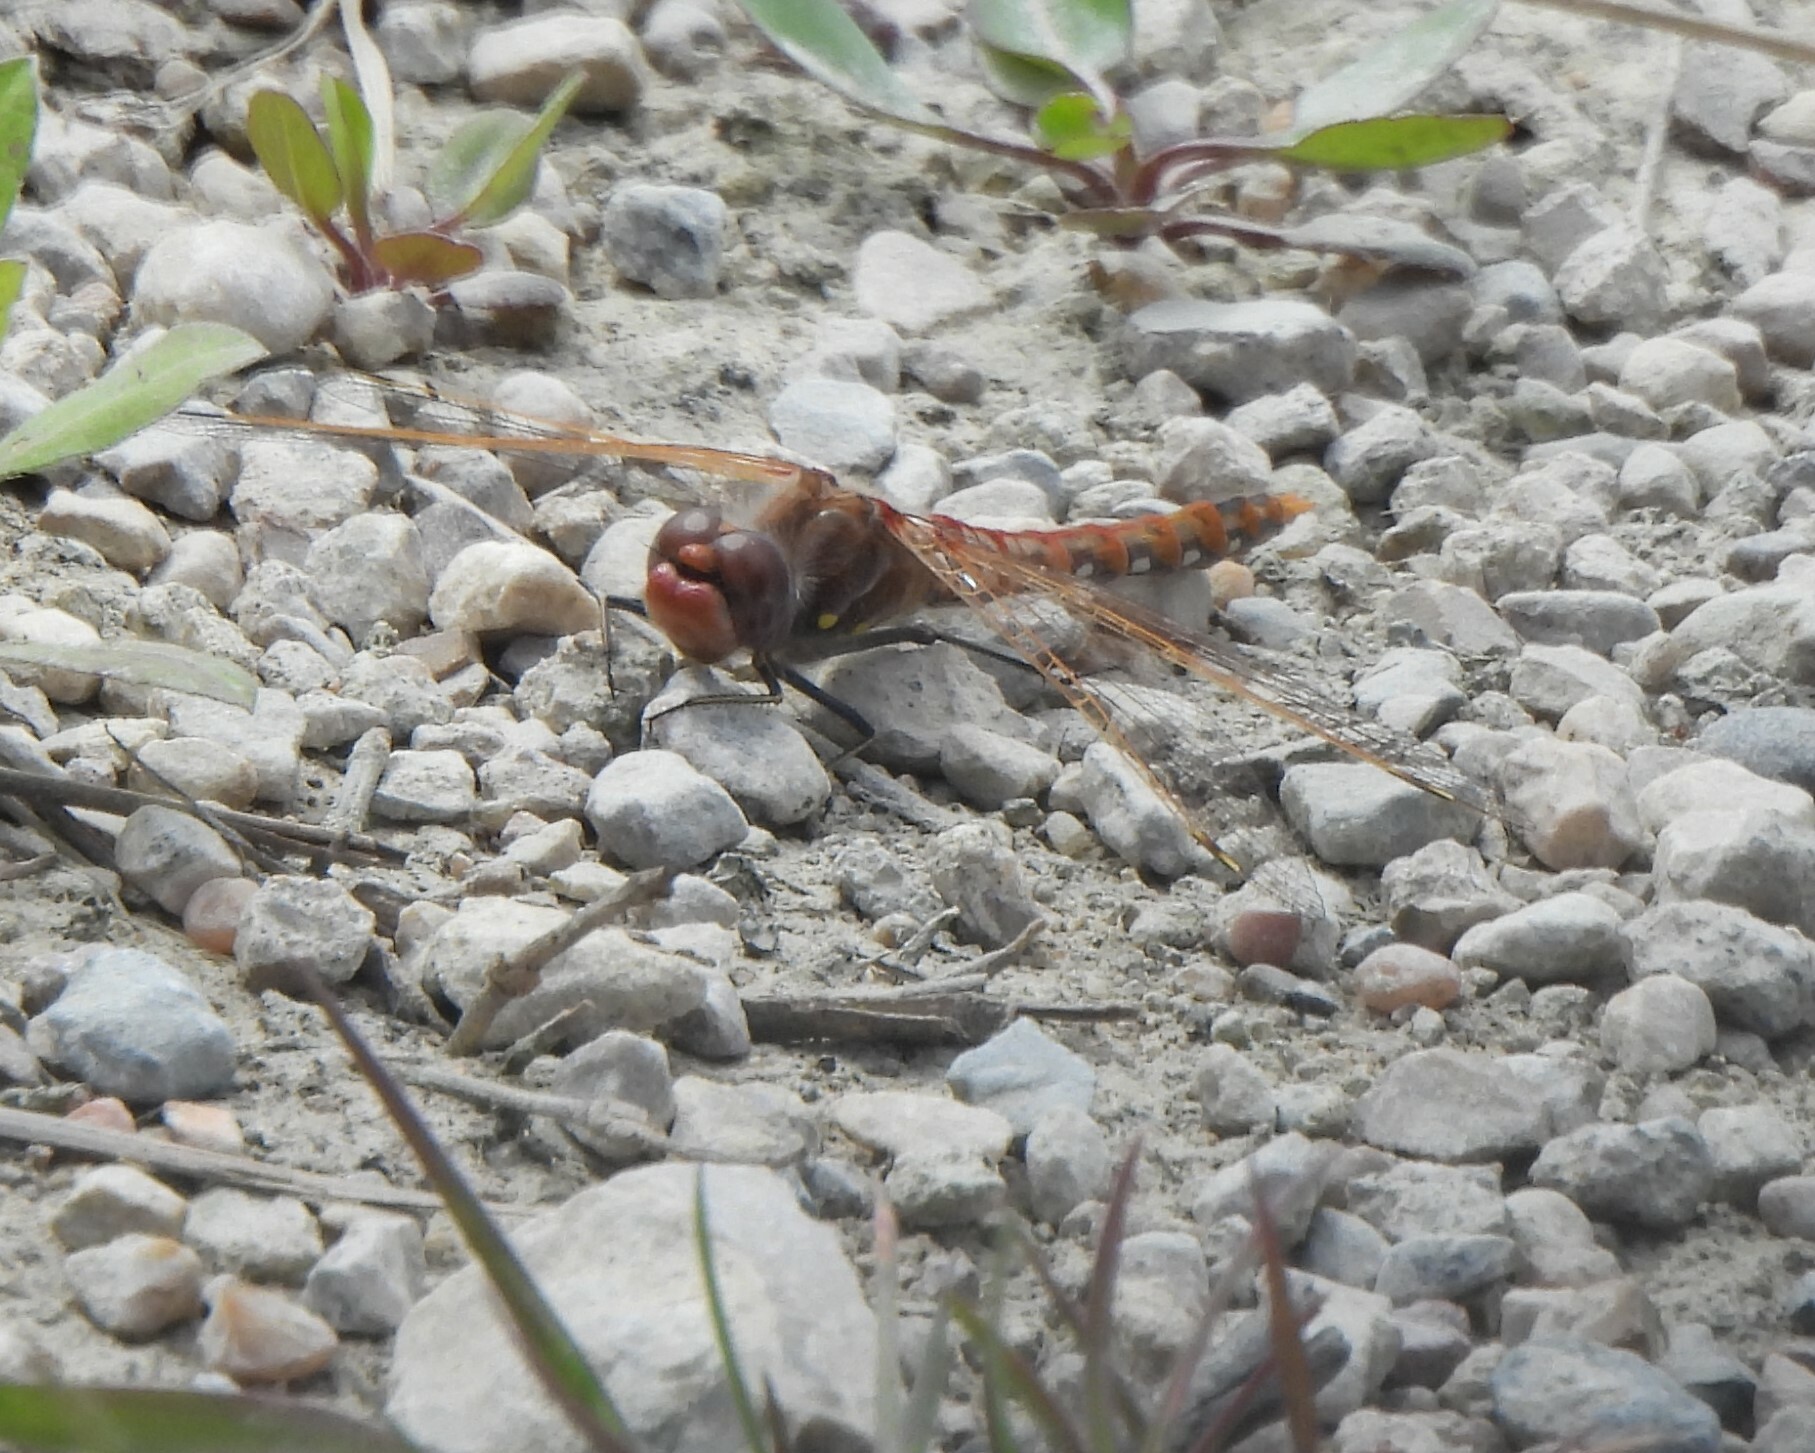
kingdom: Animalia
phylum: Arthropoda
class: Insecta
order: Odonata
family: Libellulidae
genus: Sympetrum
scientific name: Sympetrum corruptum
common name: Variegated meadowhawk
